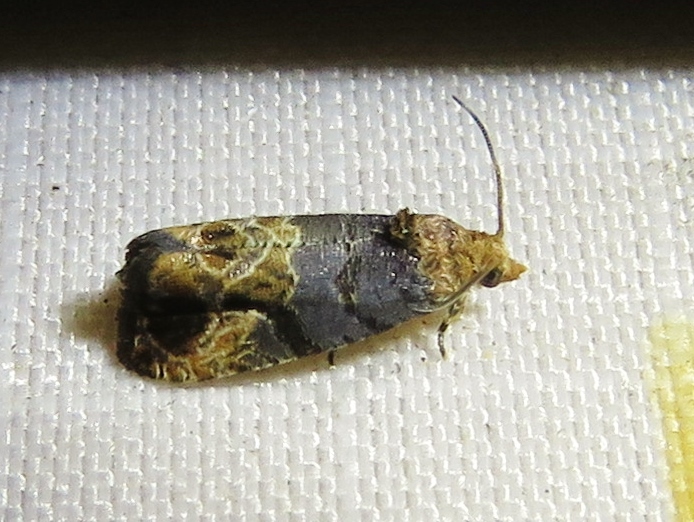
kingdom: Animalia
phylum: Arthropoda
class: Insecta
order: Lepidoptera
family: Tortricidae
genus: Paralobesia
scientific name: Paralobesia viteana
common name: Grape berry moth
